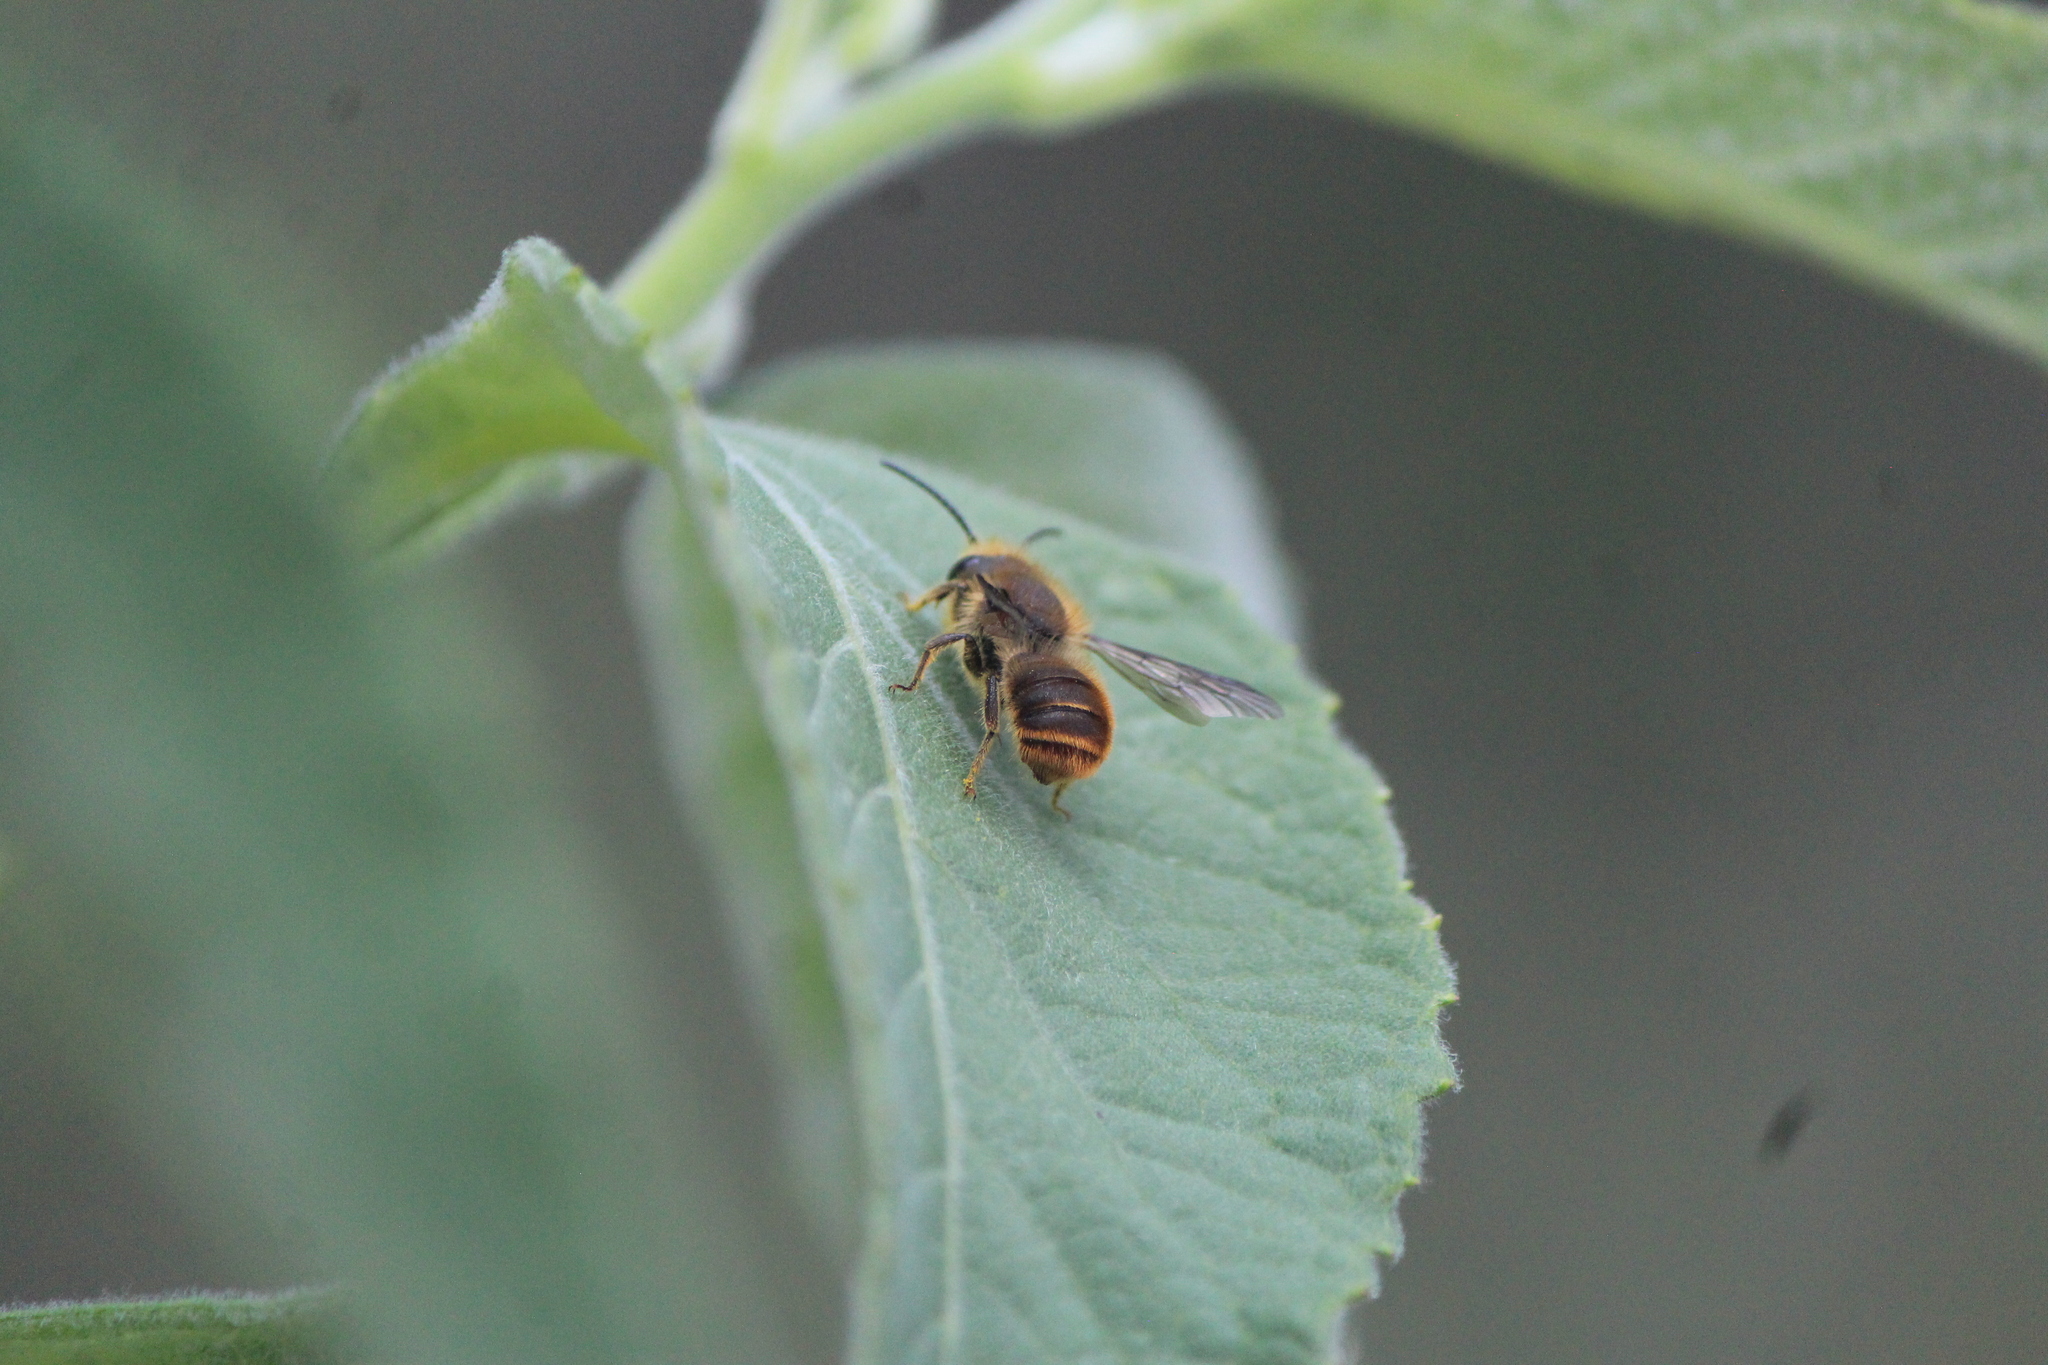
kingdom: Animalia
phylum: Arthropoda
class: Insecta
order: Hymenoptera
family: Megachilidae
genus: Osmia
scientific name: Osmia azteca
